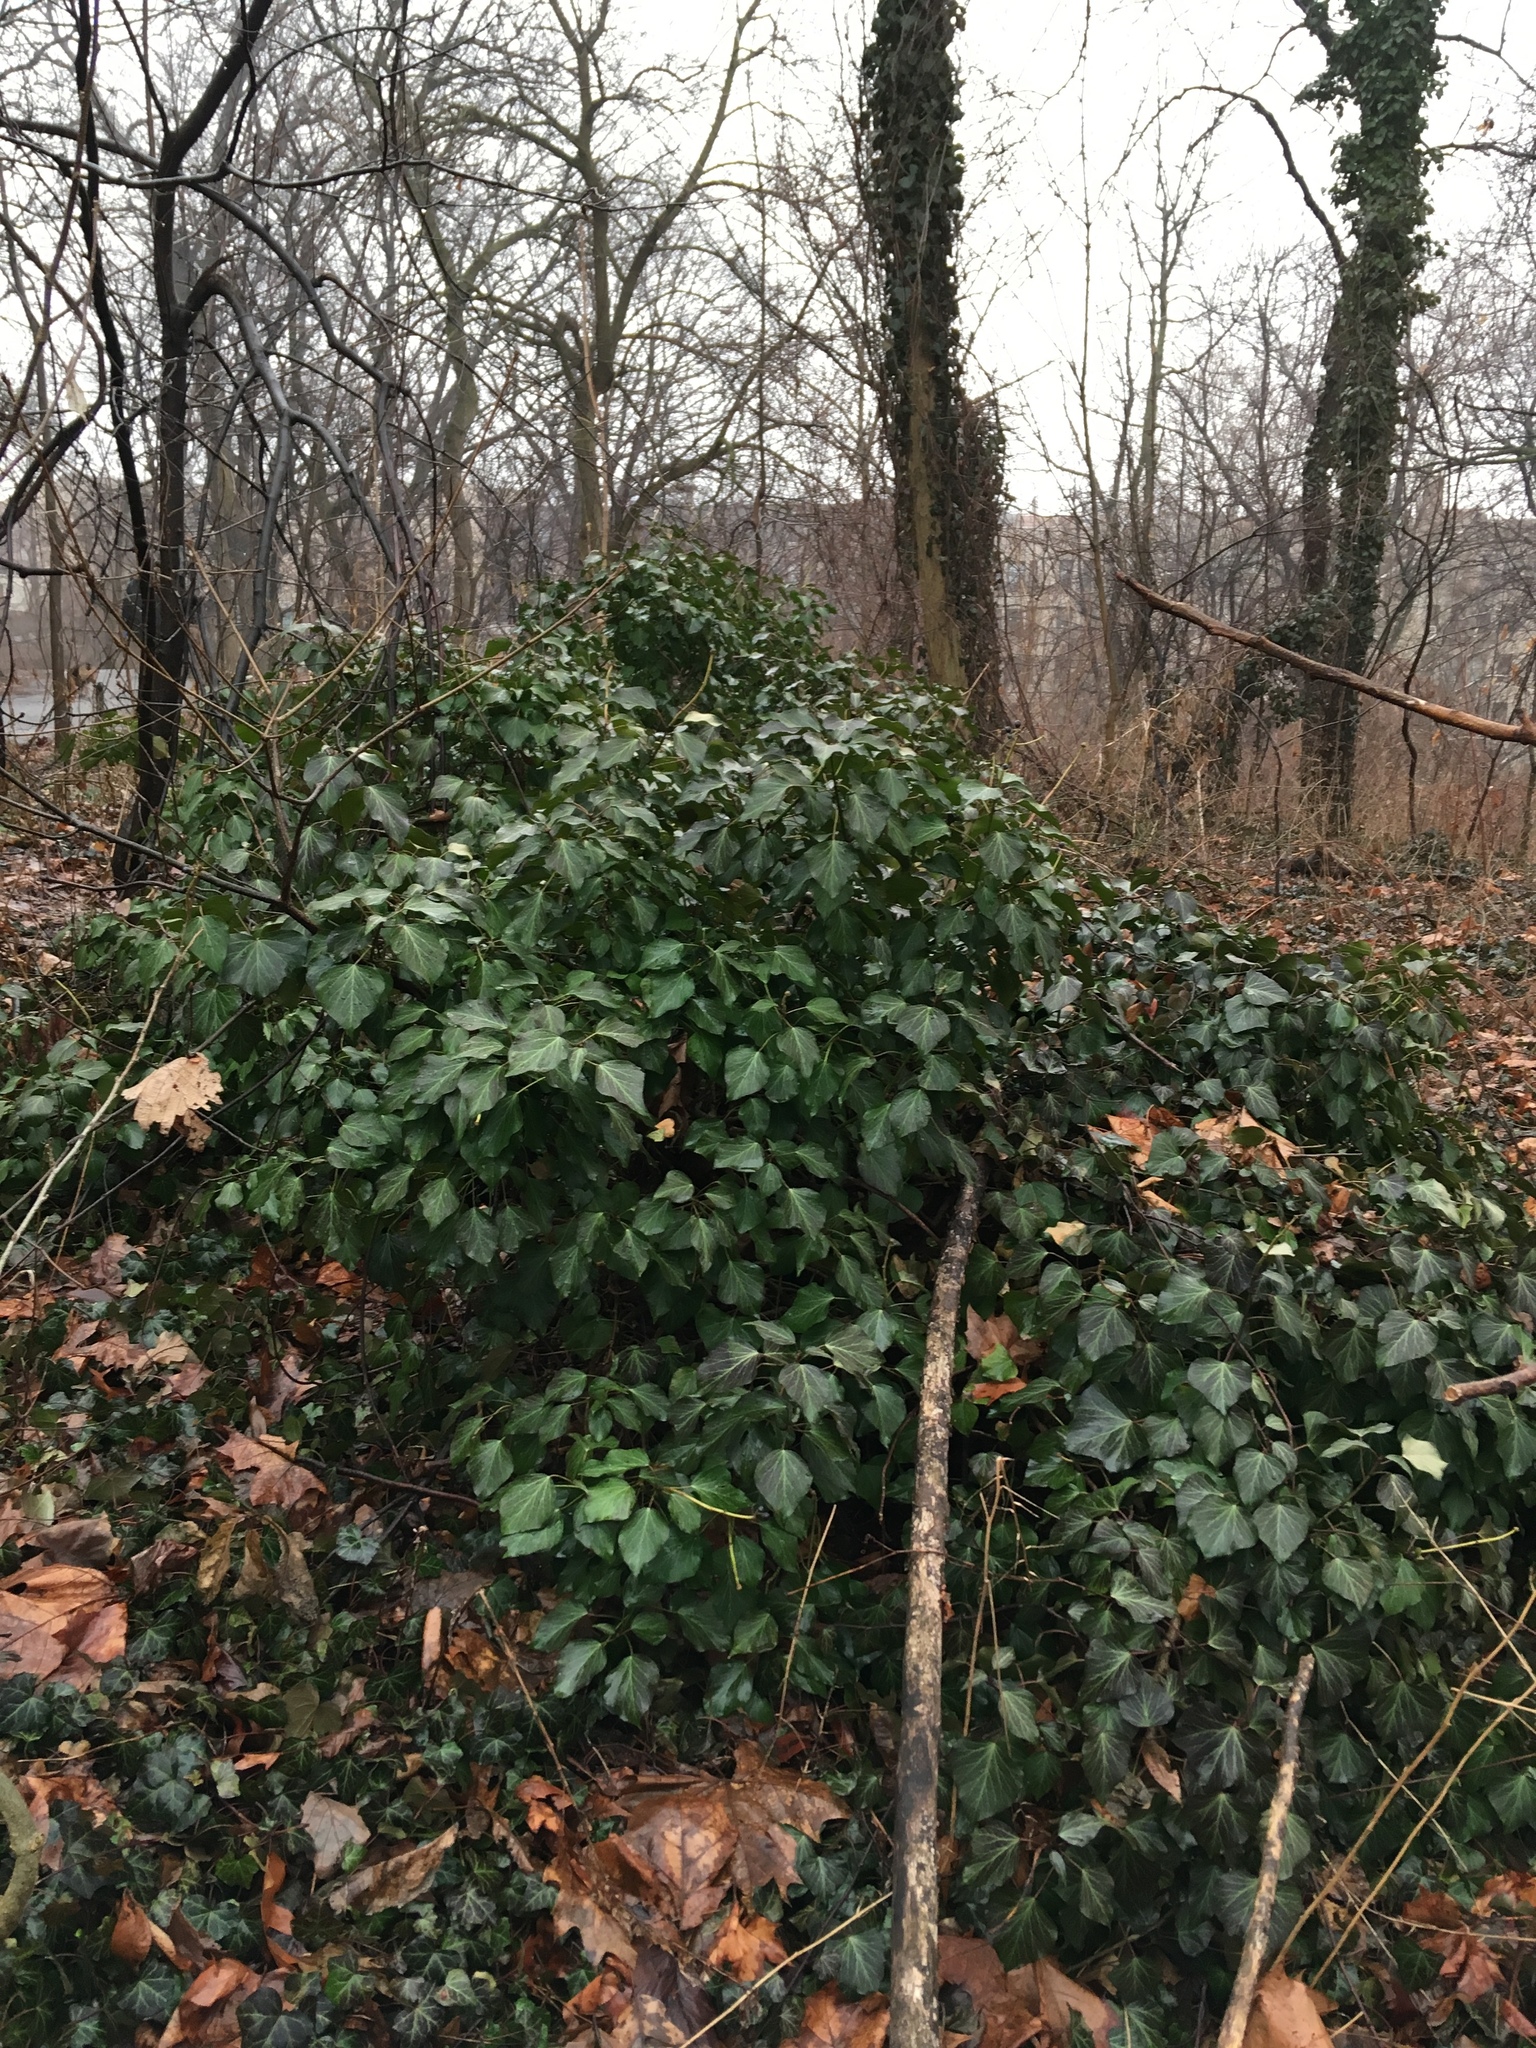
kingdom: Plantae
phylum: Tracheophyta
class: Magnoliopsida
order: Apiales
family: Araliaceae
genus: Hedera
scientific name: Hedera helix
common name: Ivy
